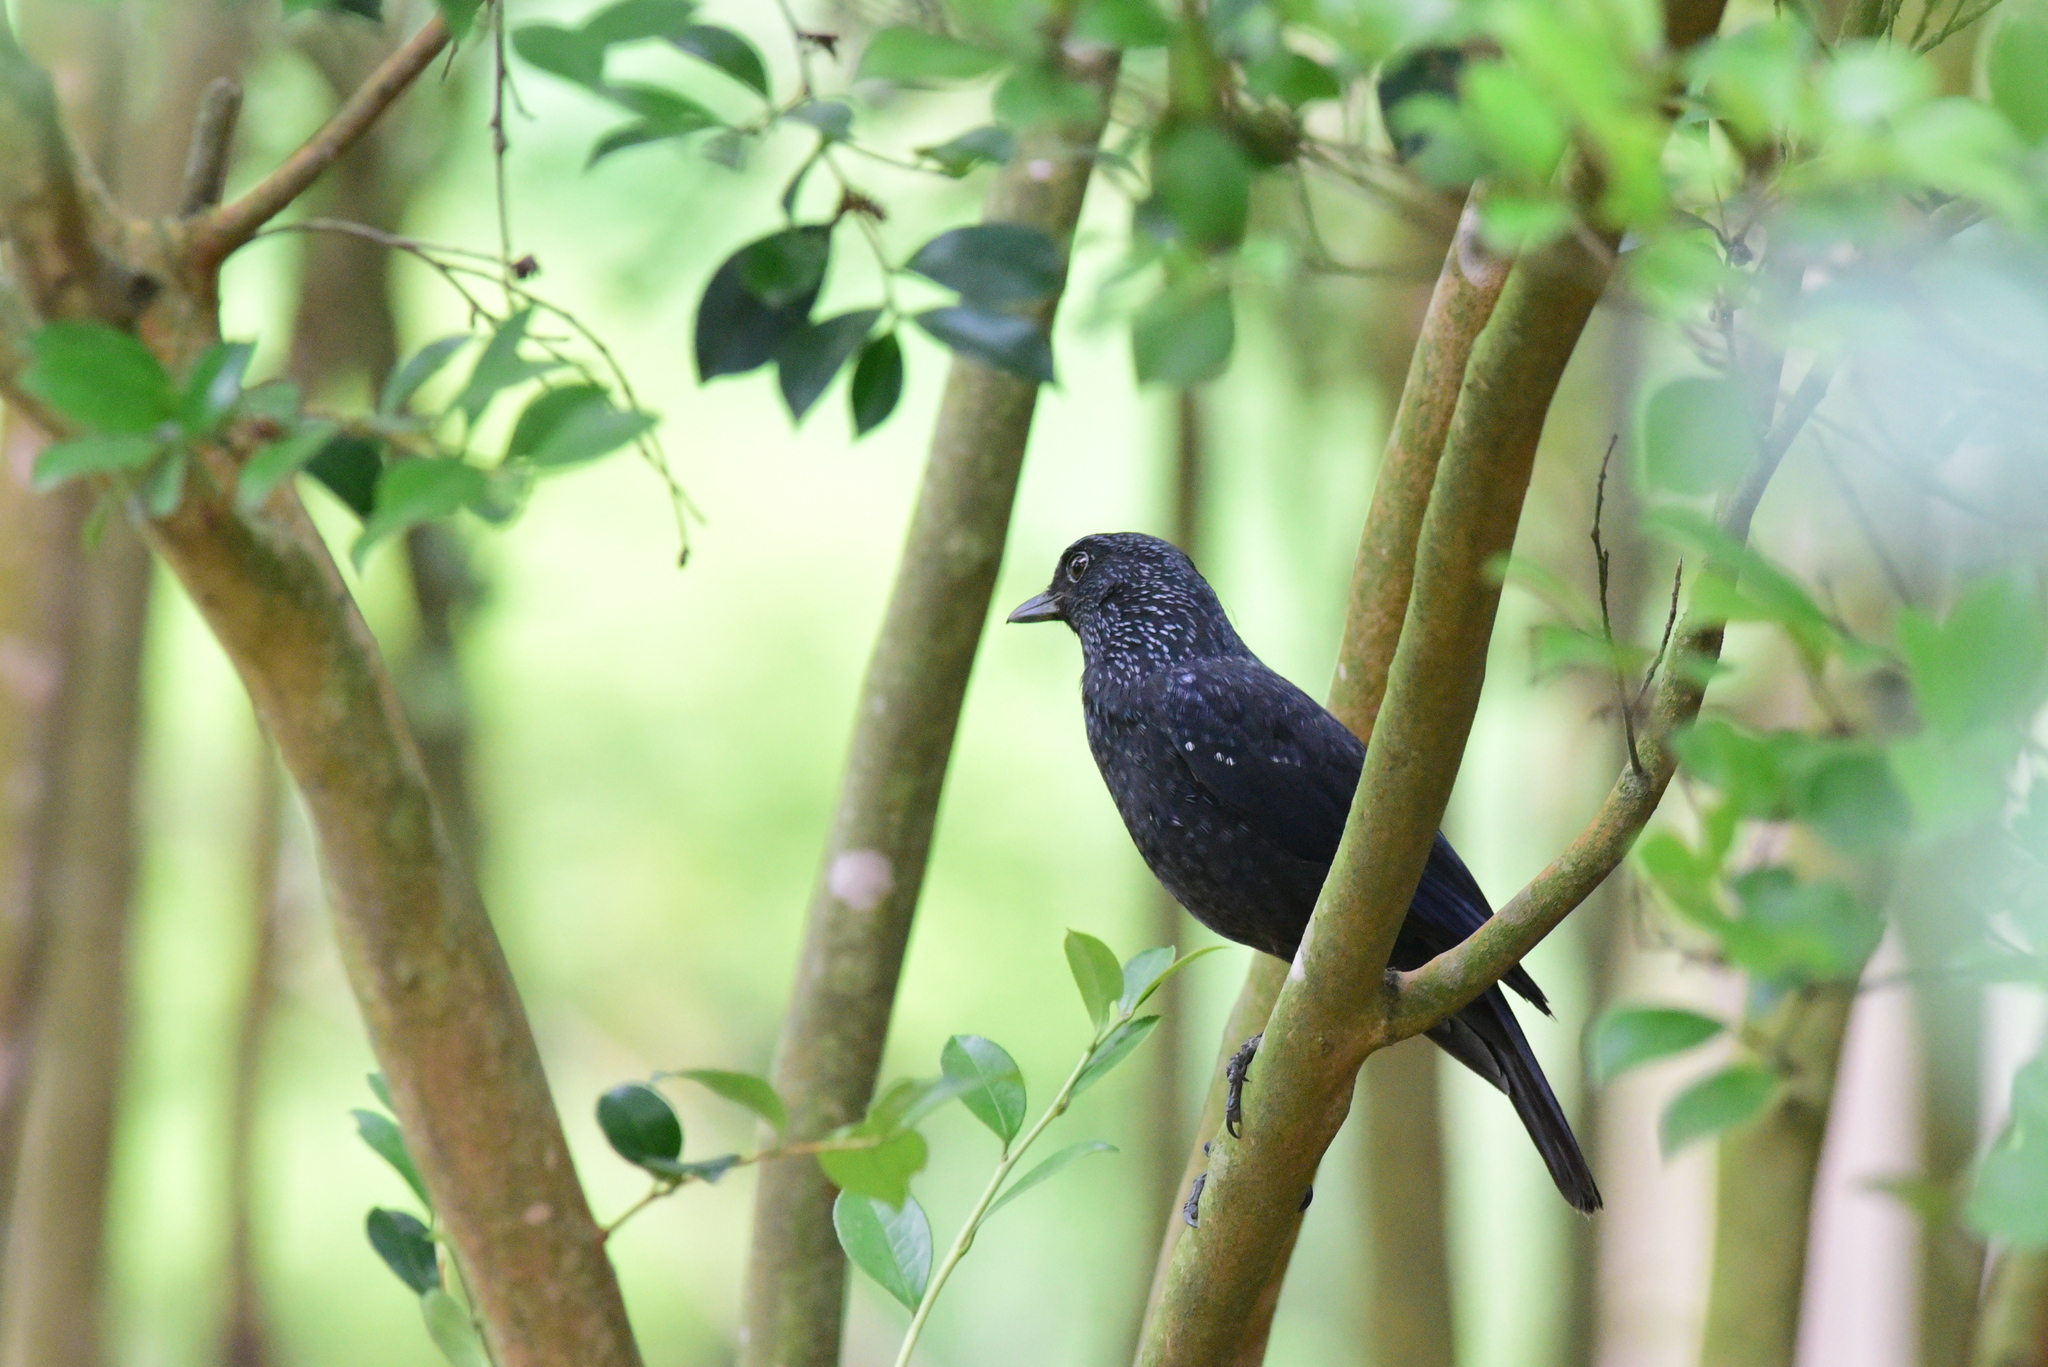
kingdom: Animalia
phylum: Chordata
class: Aves
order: Passeriformes
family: Muscicapidae
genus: Myophonus
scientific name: Myophonus caeruleus
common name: Blue whistling-thrush
